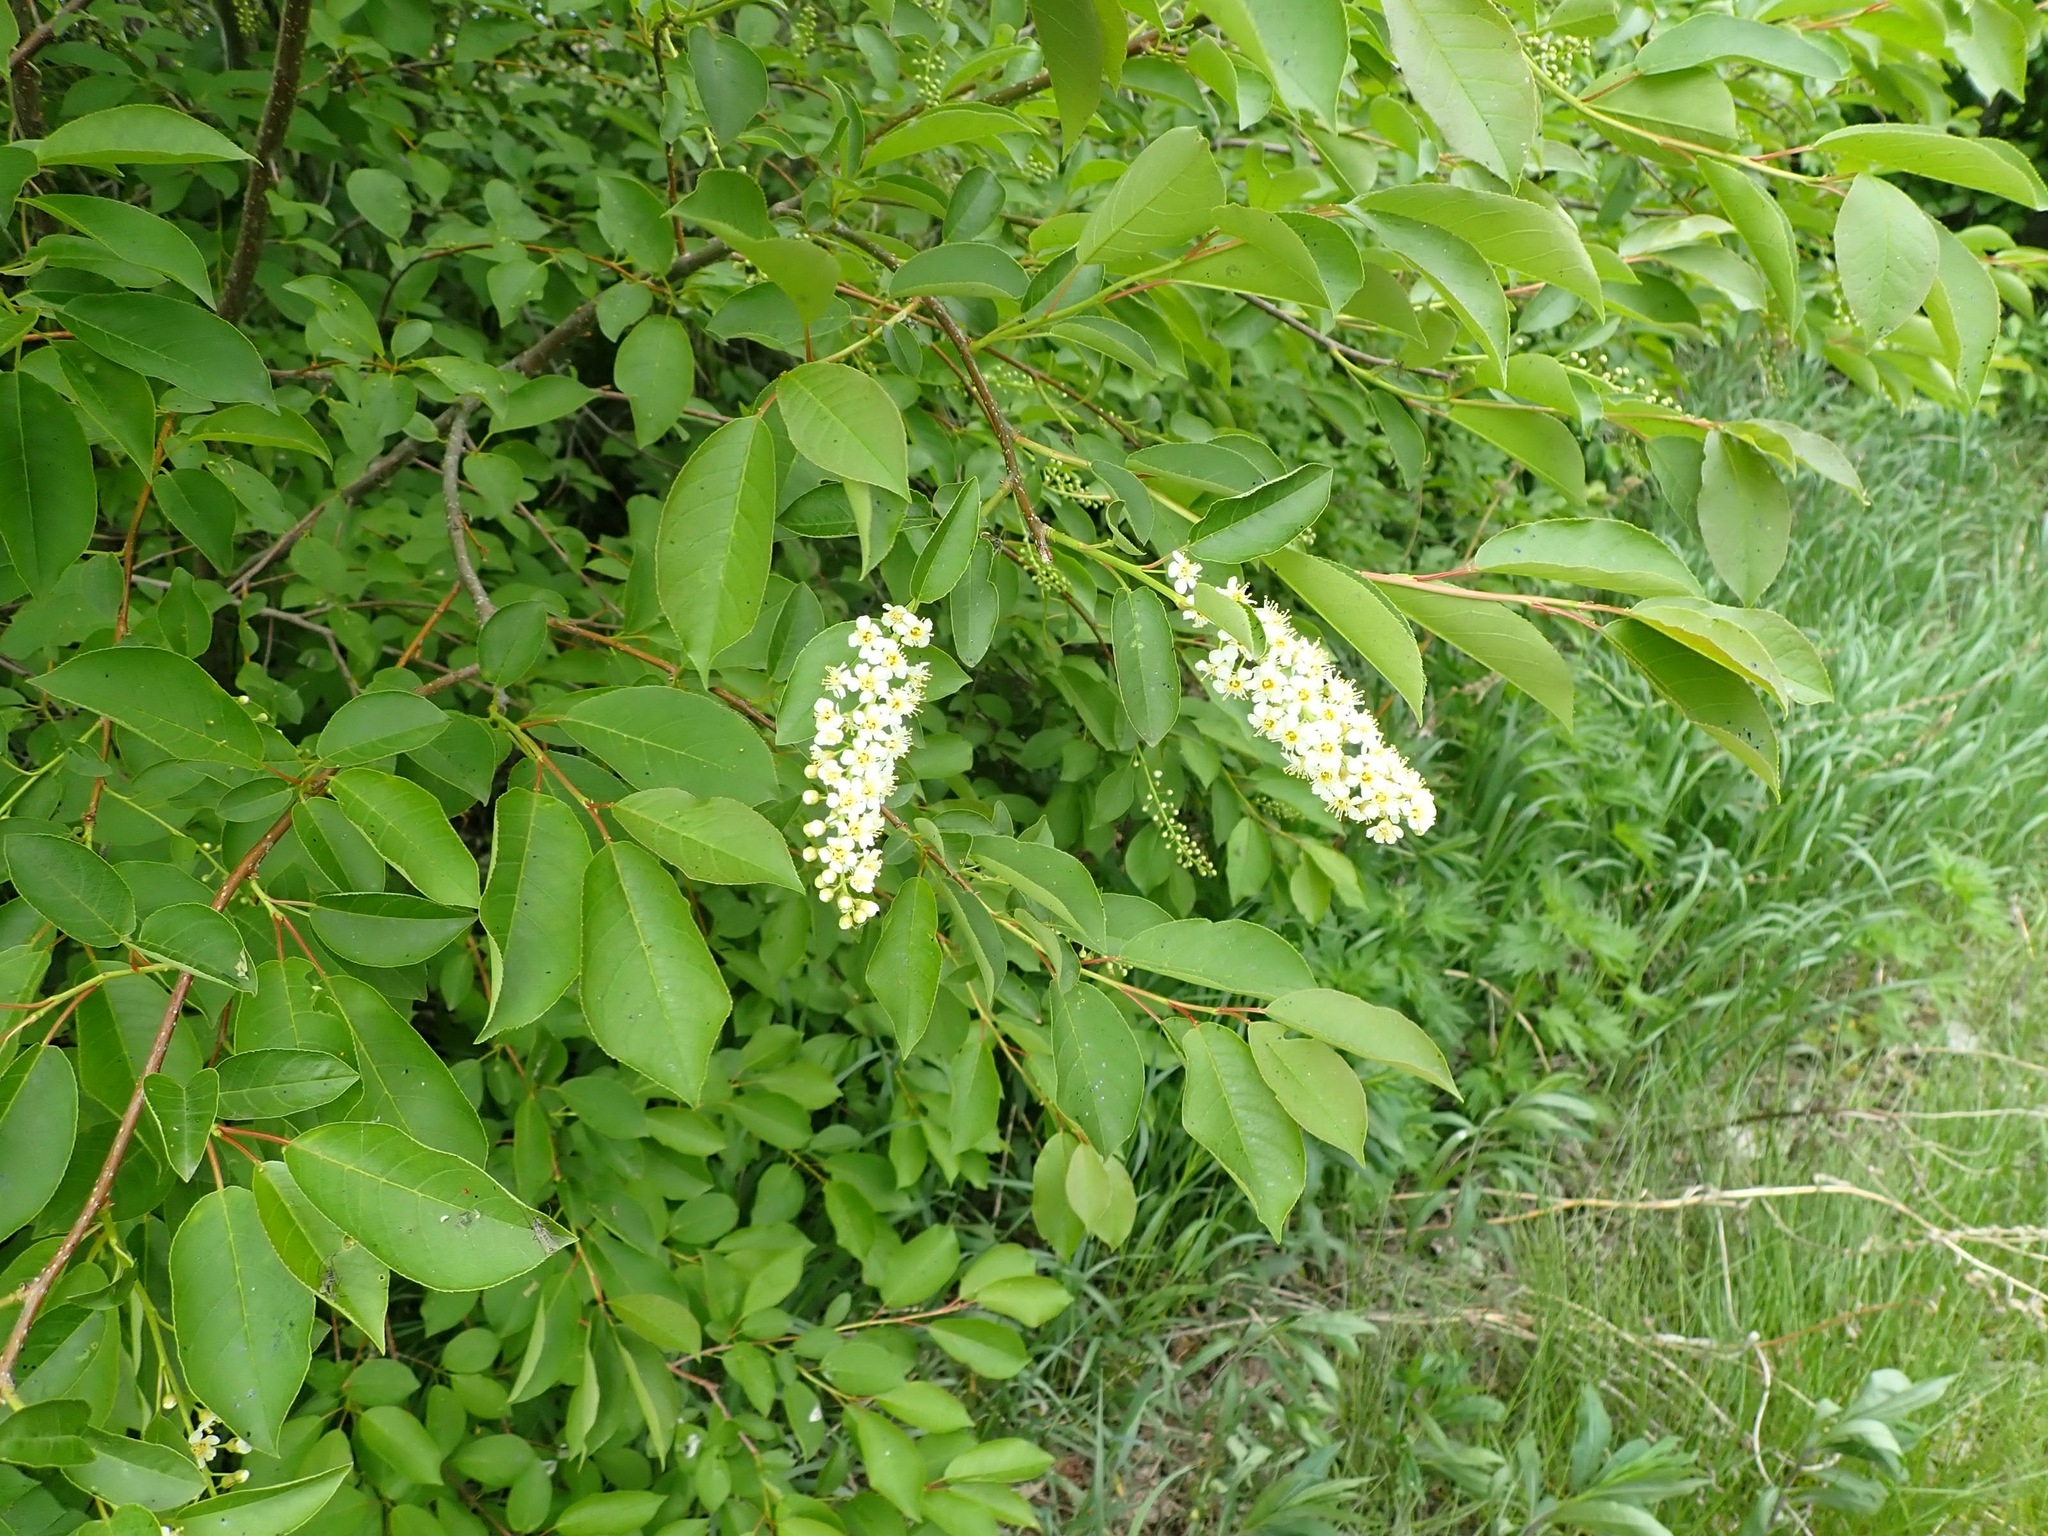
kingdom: Plantae
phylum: Tracheophyta
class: Magnoliopsida
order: Rosales
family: Rosaceae
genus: Prunus
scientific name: Prunus virginiana
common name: Chokecherry
